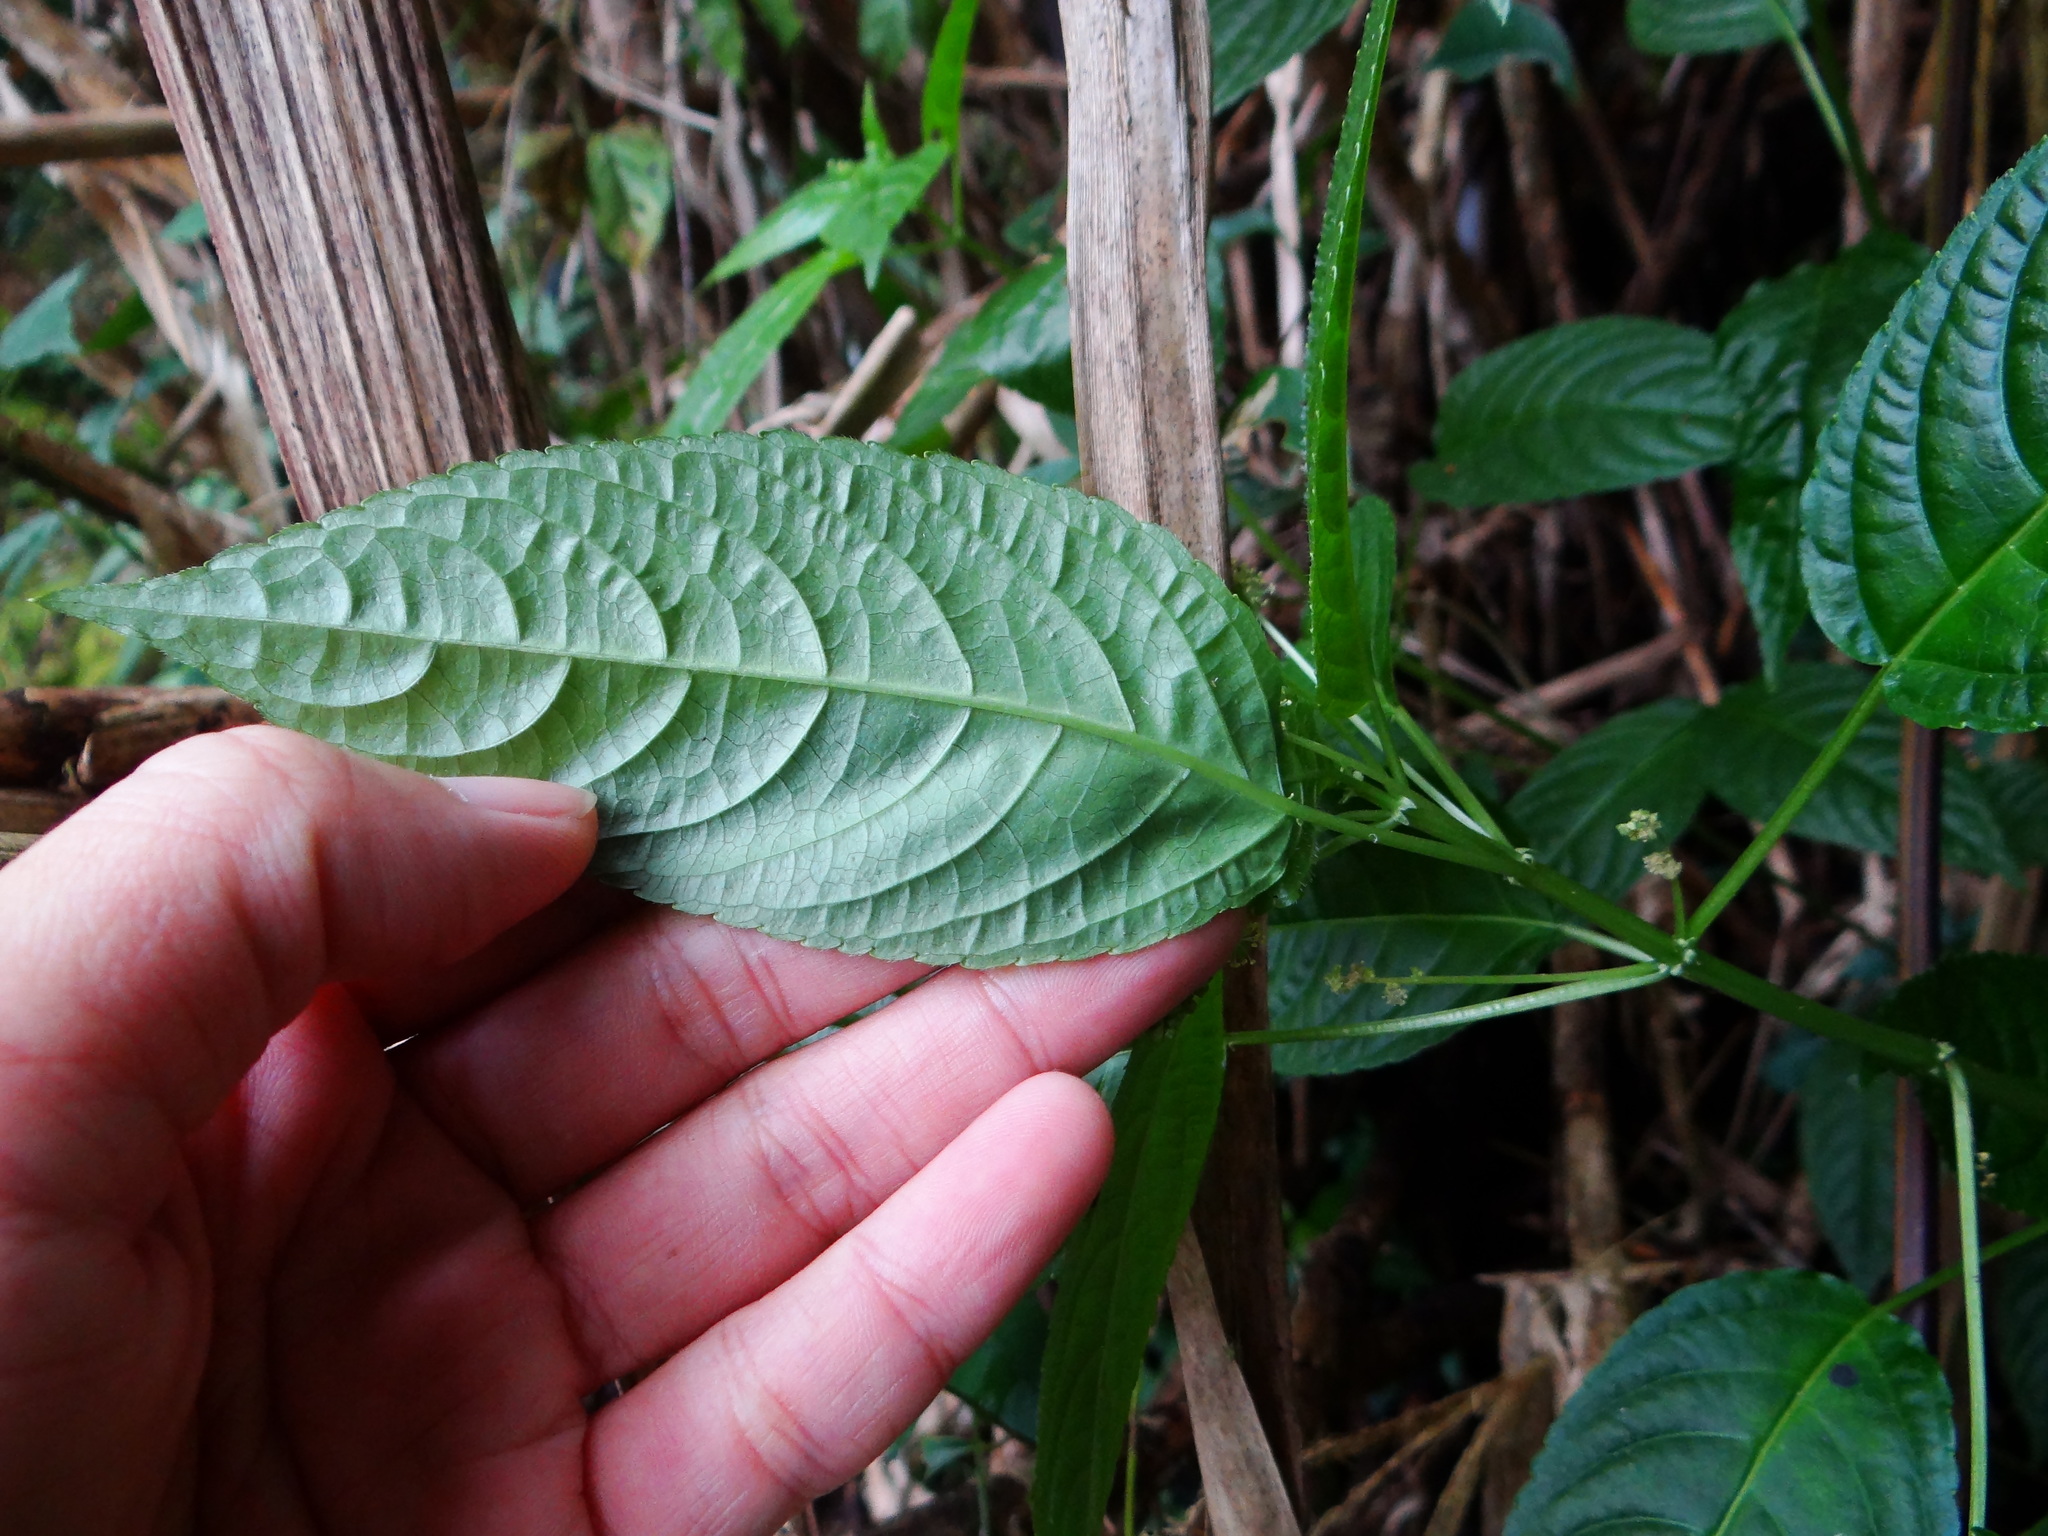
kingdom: Plantae
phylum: Tracheophyta
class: Magnoliopsida
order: Malpighiales
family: Euphorbiaceae
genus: Mercurialis
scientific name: Mercurialis leiocarpa
